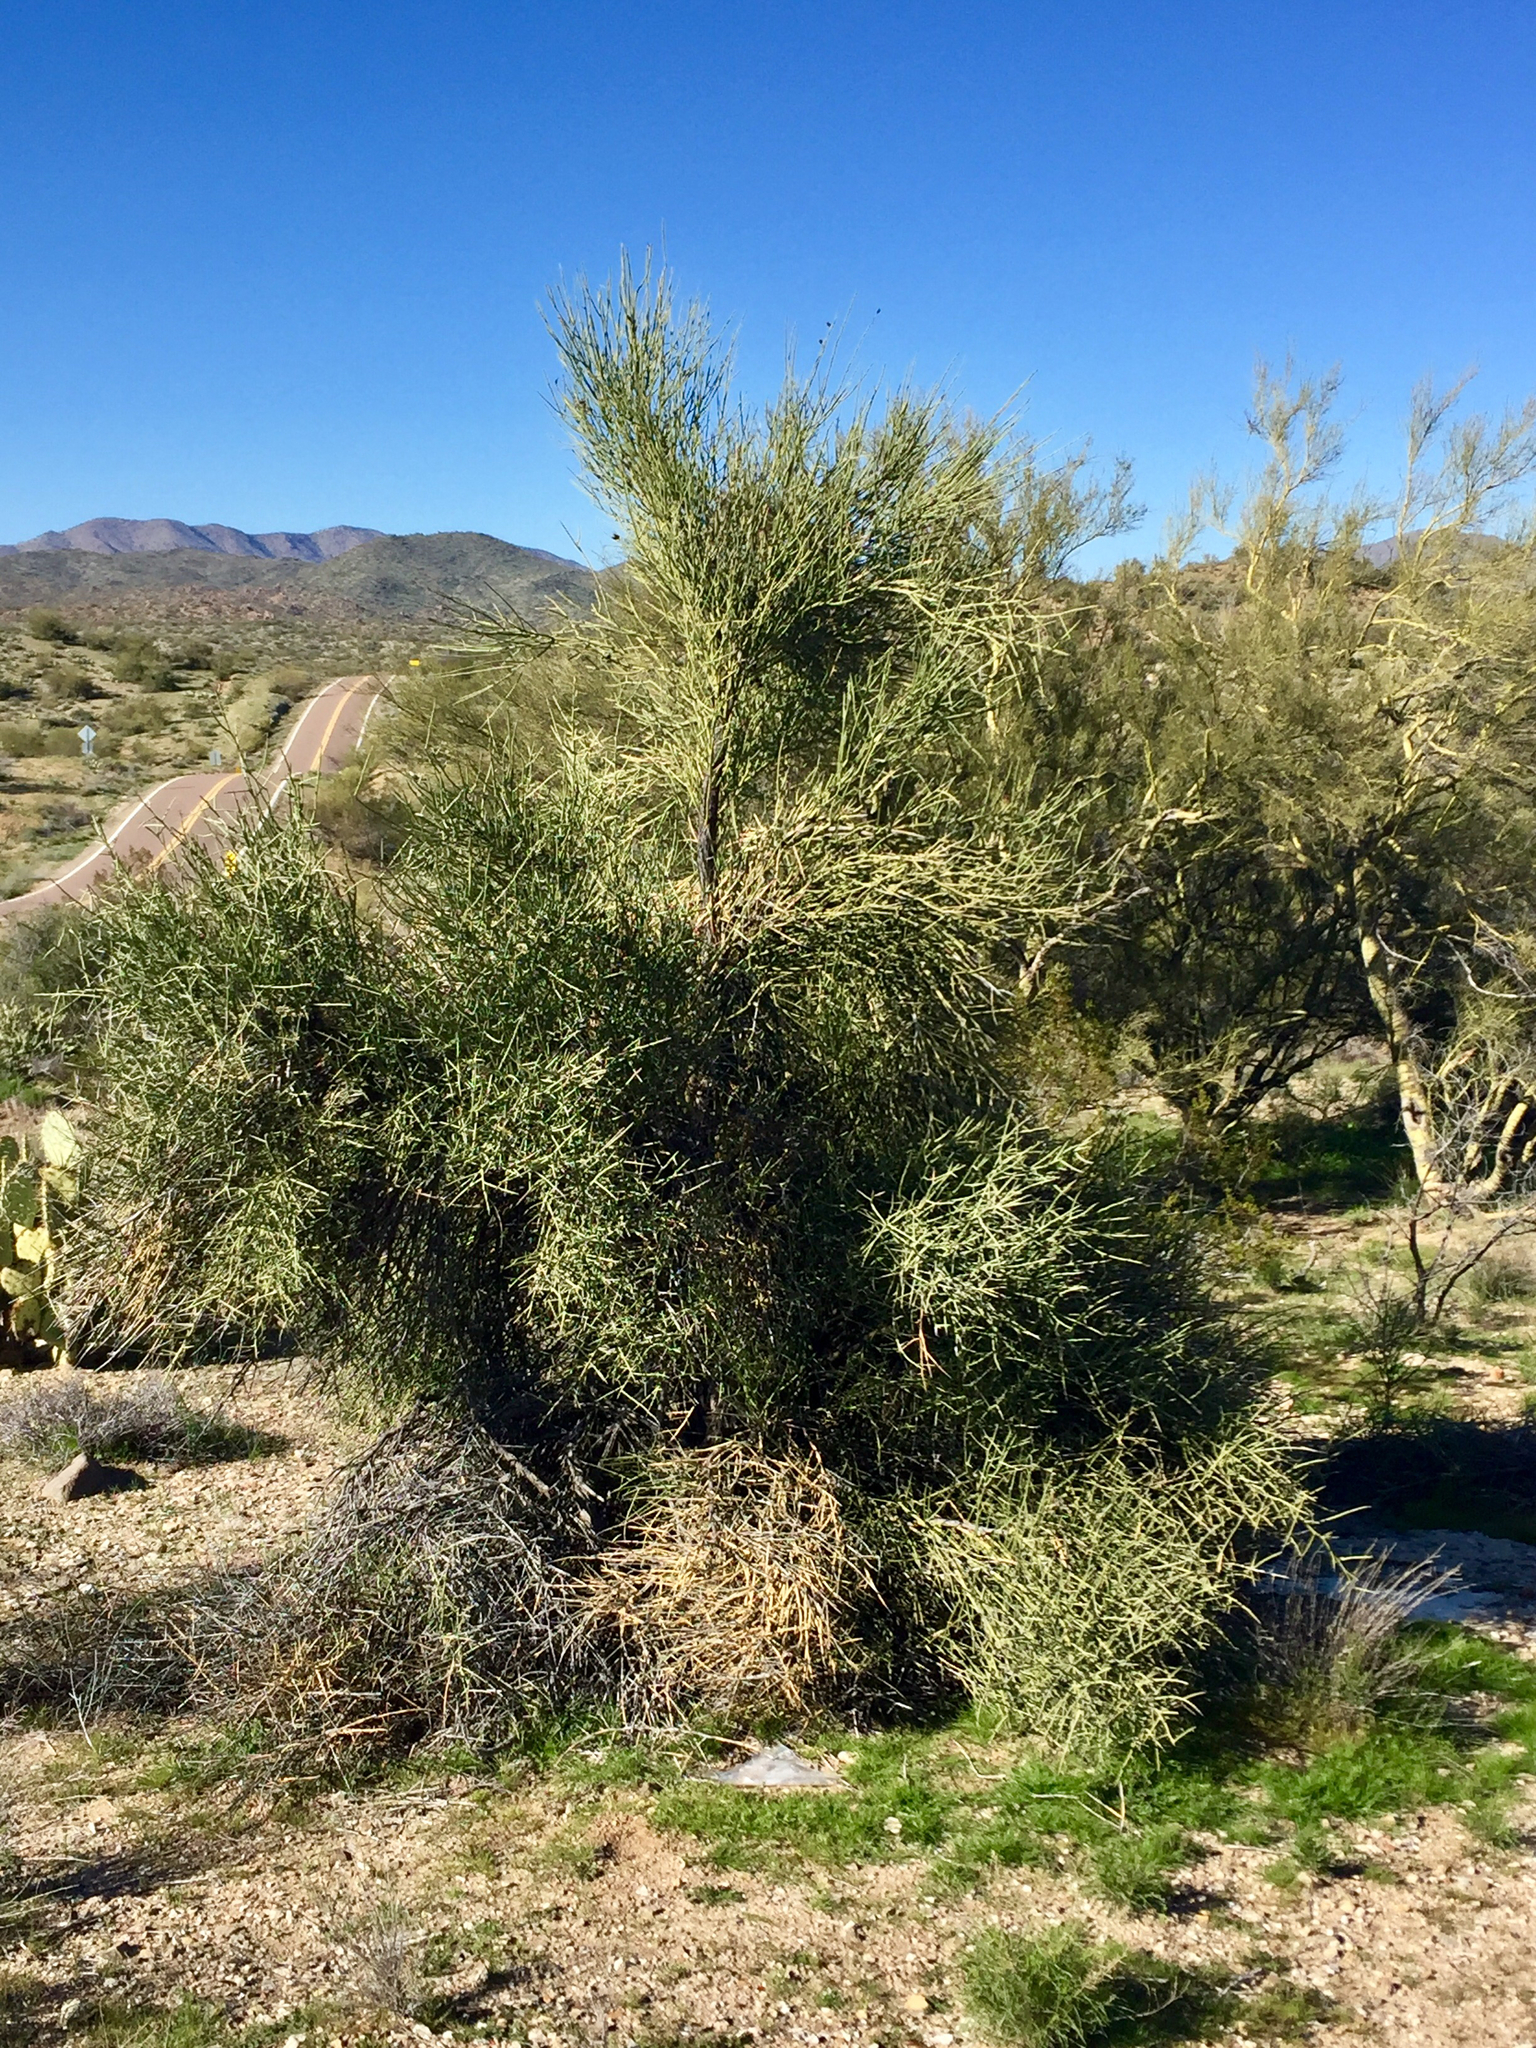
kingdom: Plantae
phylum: Tracheophyta
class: Magnoliopsida
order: Celastrales
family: Celastraceae
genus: Canotia
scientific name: Canotia holacantha
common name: Crucifixion thorns
